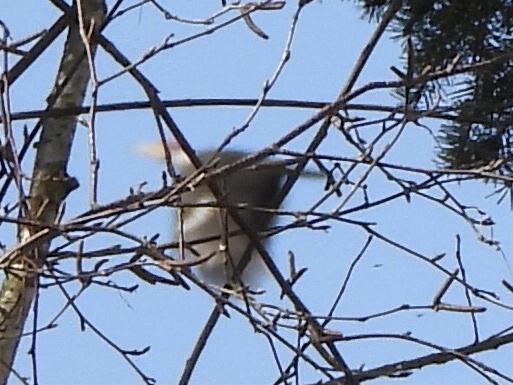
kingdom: Animalia
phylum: Chordata
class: Aves
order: Piciformes
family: Picidae
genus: Dryocopus
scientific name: Dryocopus pileatus
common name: Pileated woodpecker
